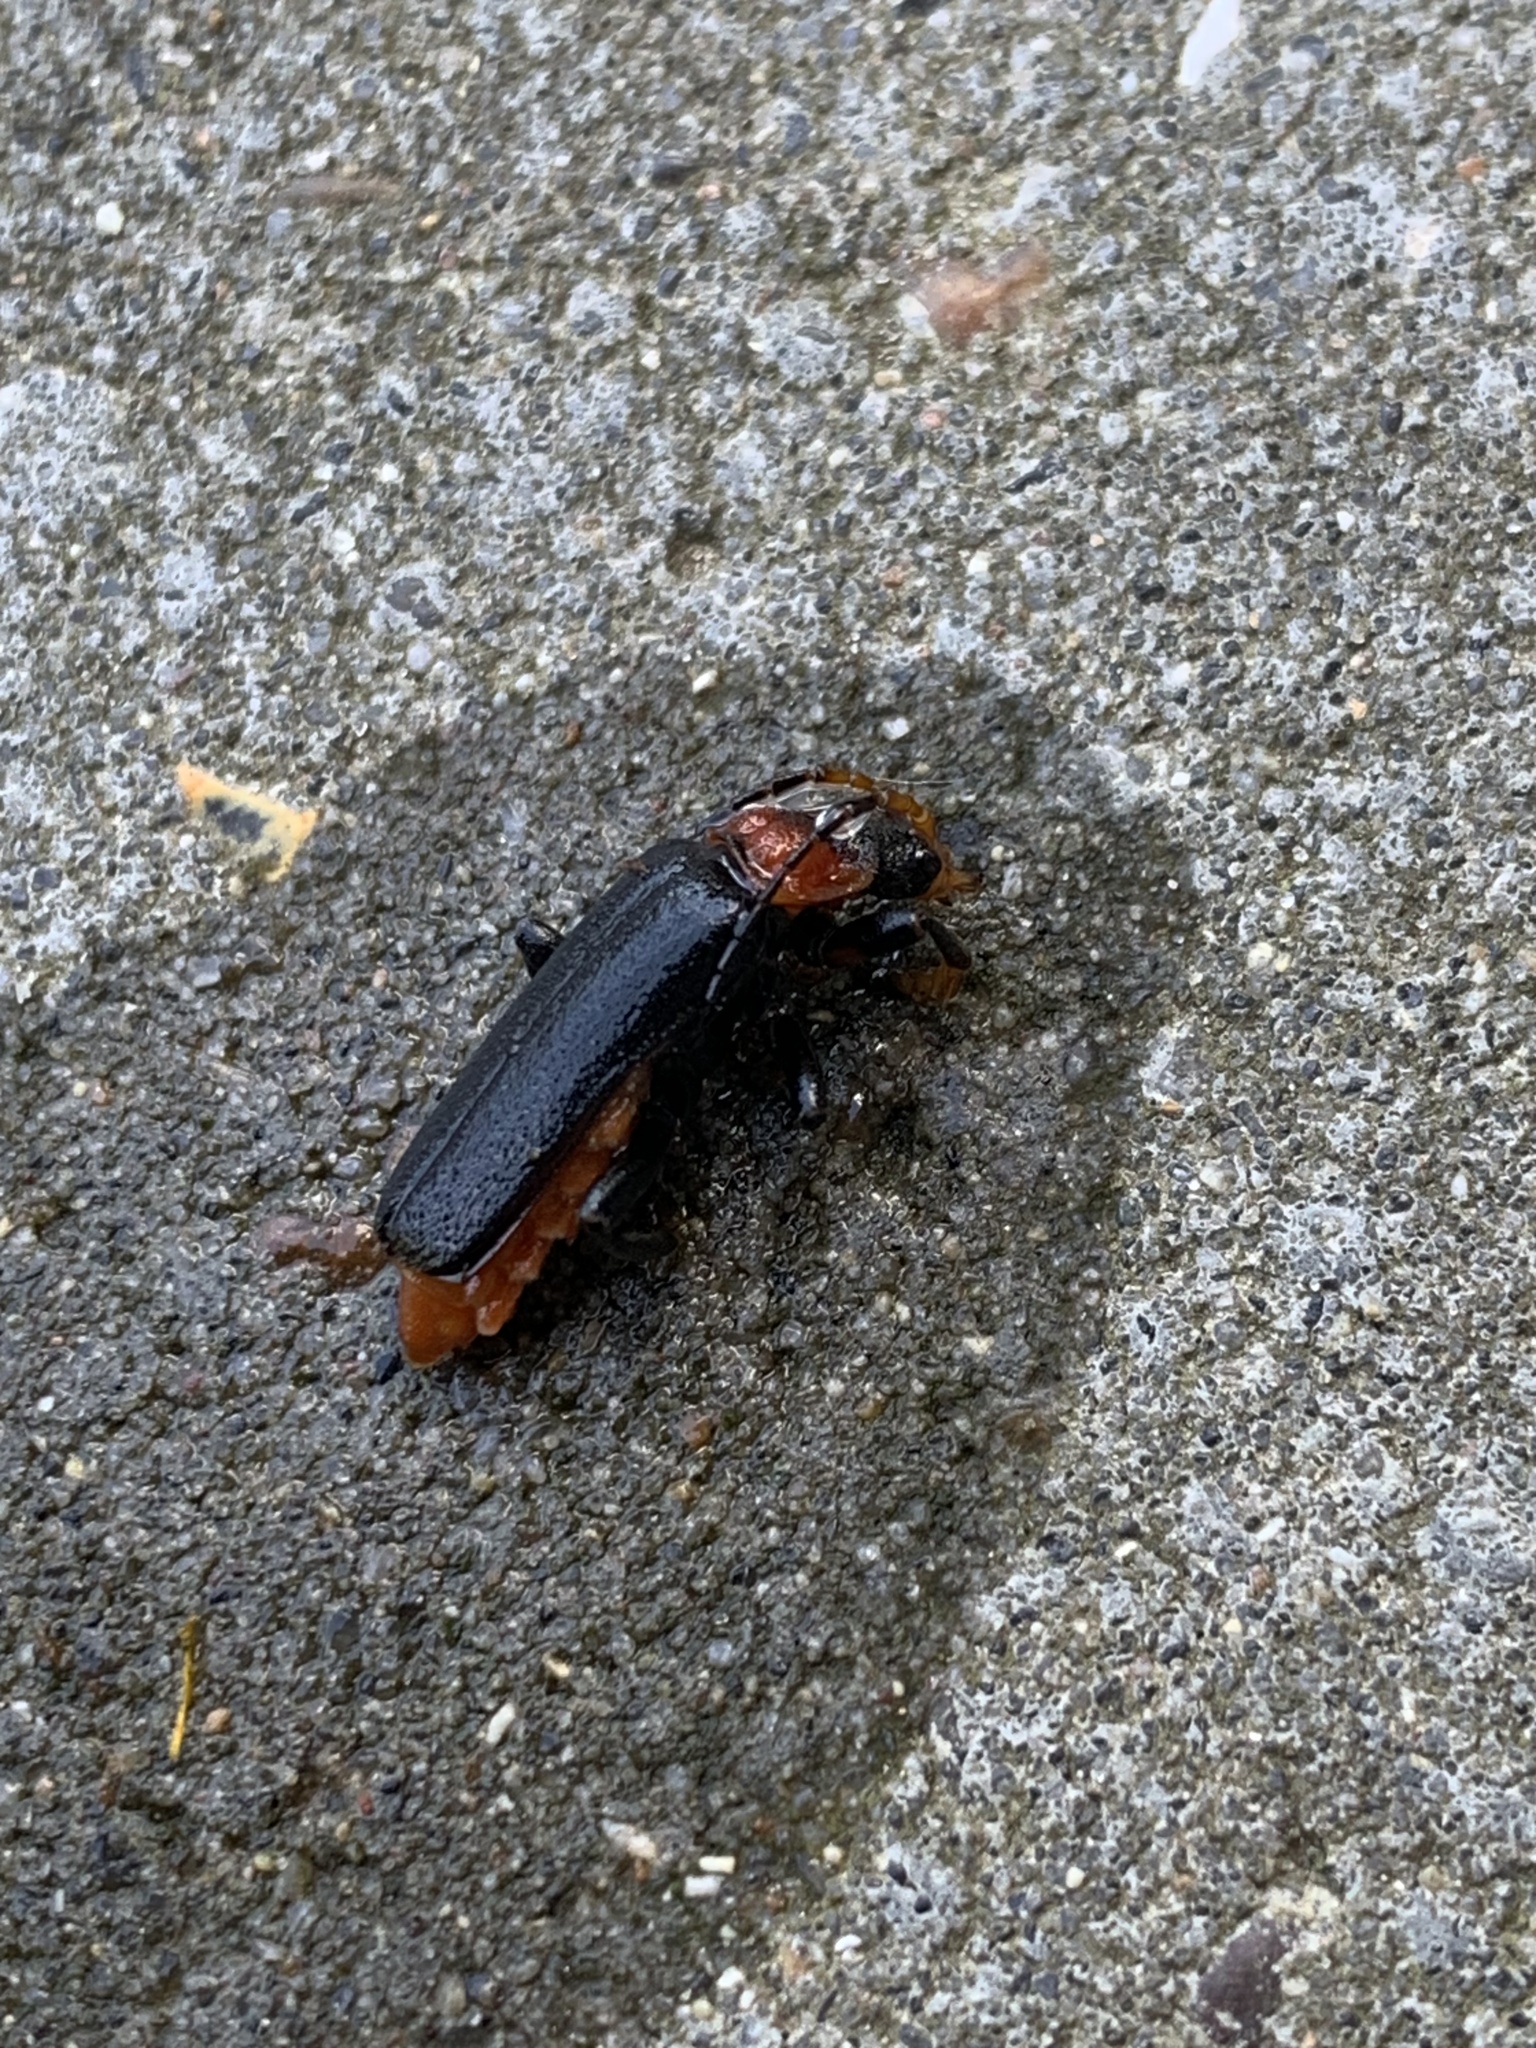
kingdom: Animalia
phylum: Arthropoda
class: Insecta
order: Coleoptera
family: Cantharidae
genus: Cantharis
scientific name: Cantharis fusca
